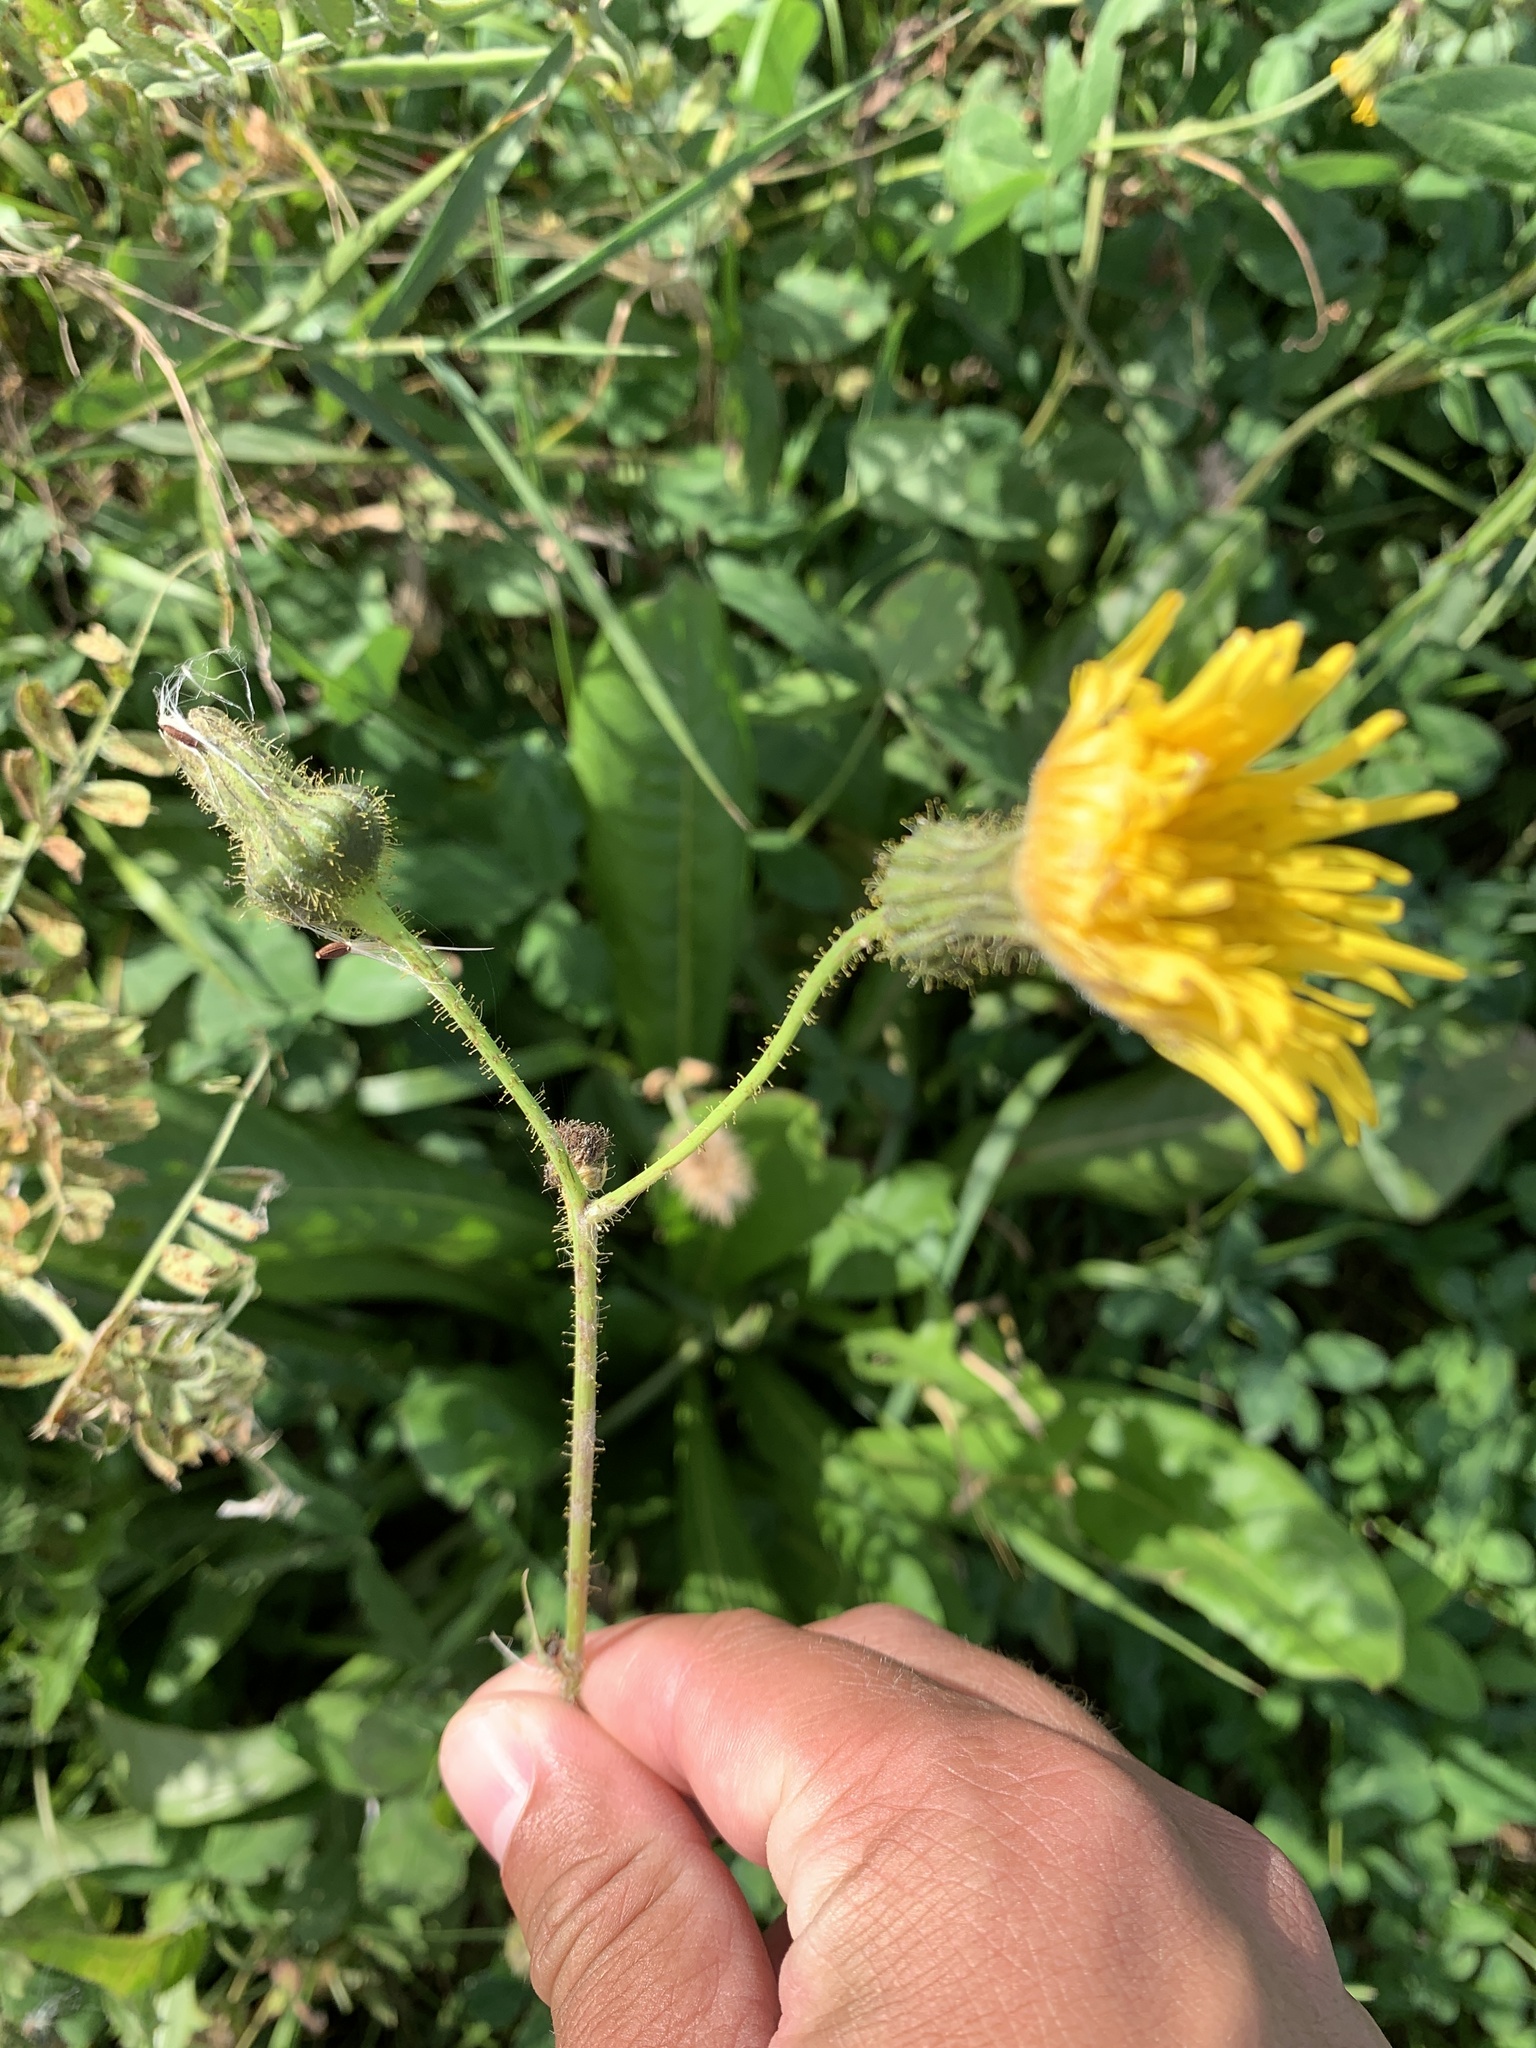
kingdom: Plantae
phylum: Tracheophyta
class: Magnoliopsida
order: Asterales
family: Asteraceae
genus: Sonchus
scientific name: Sonchus arvensis
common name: Perennial sow-thistle
